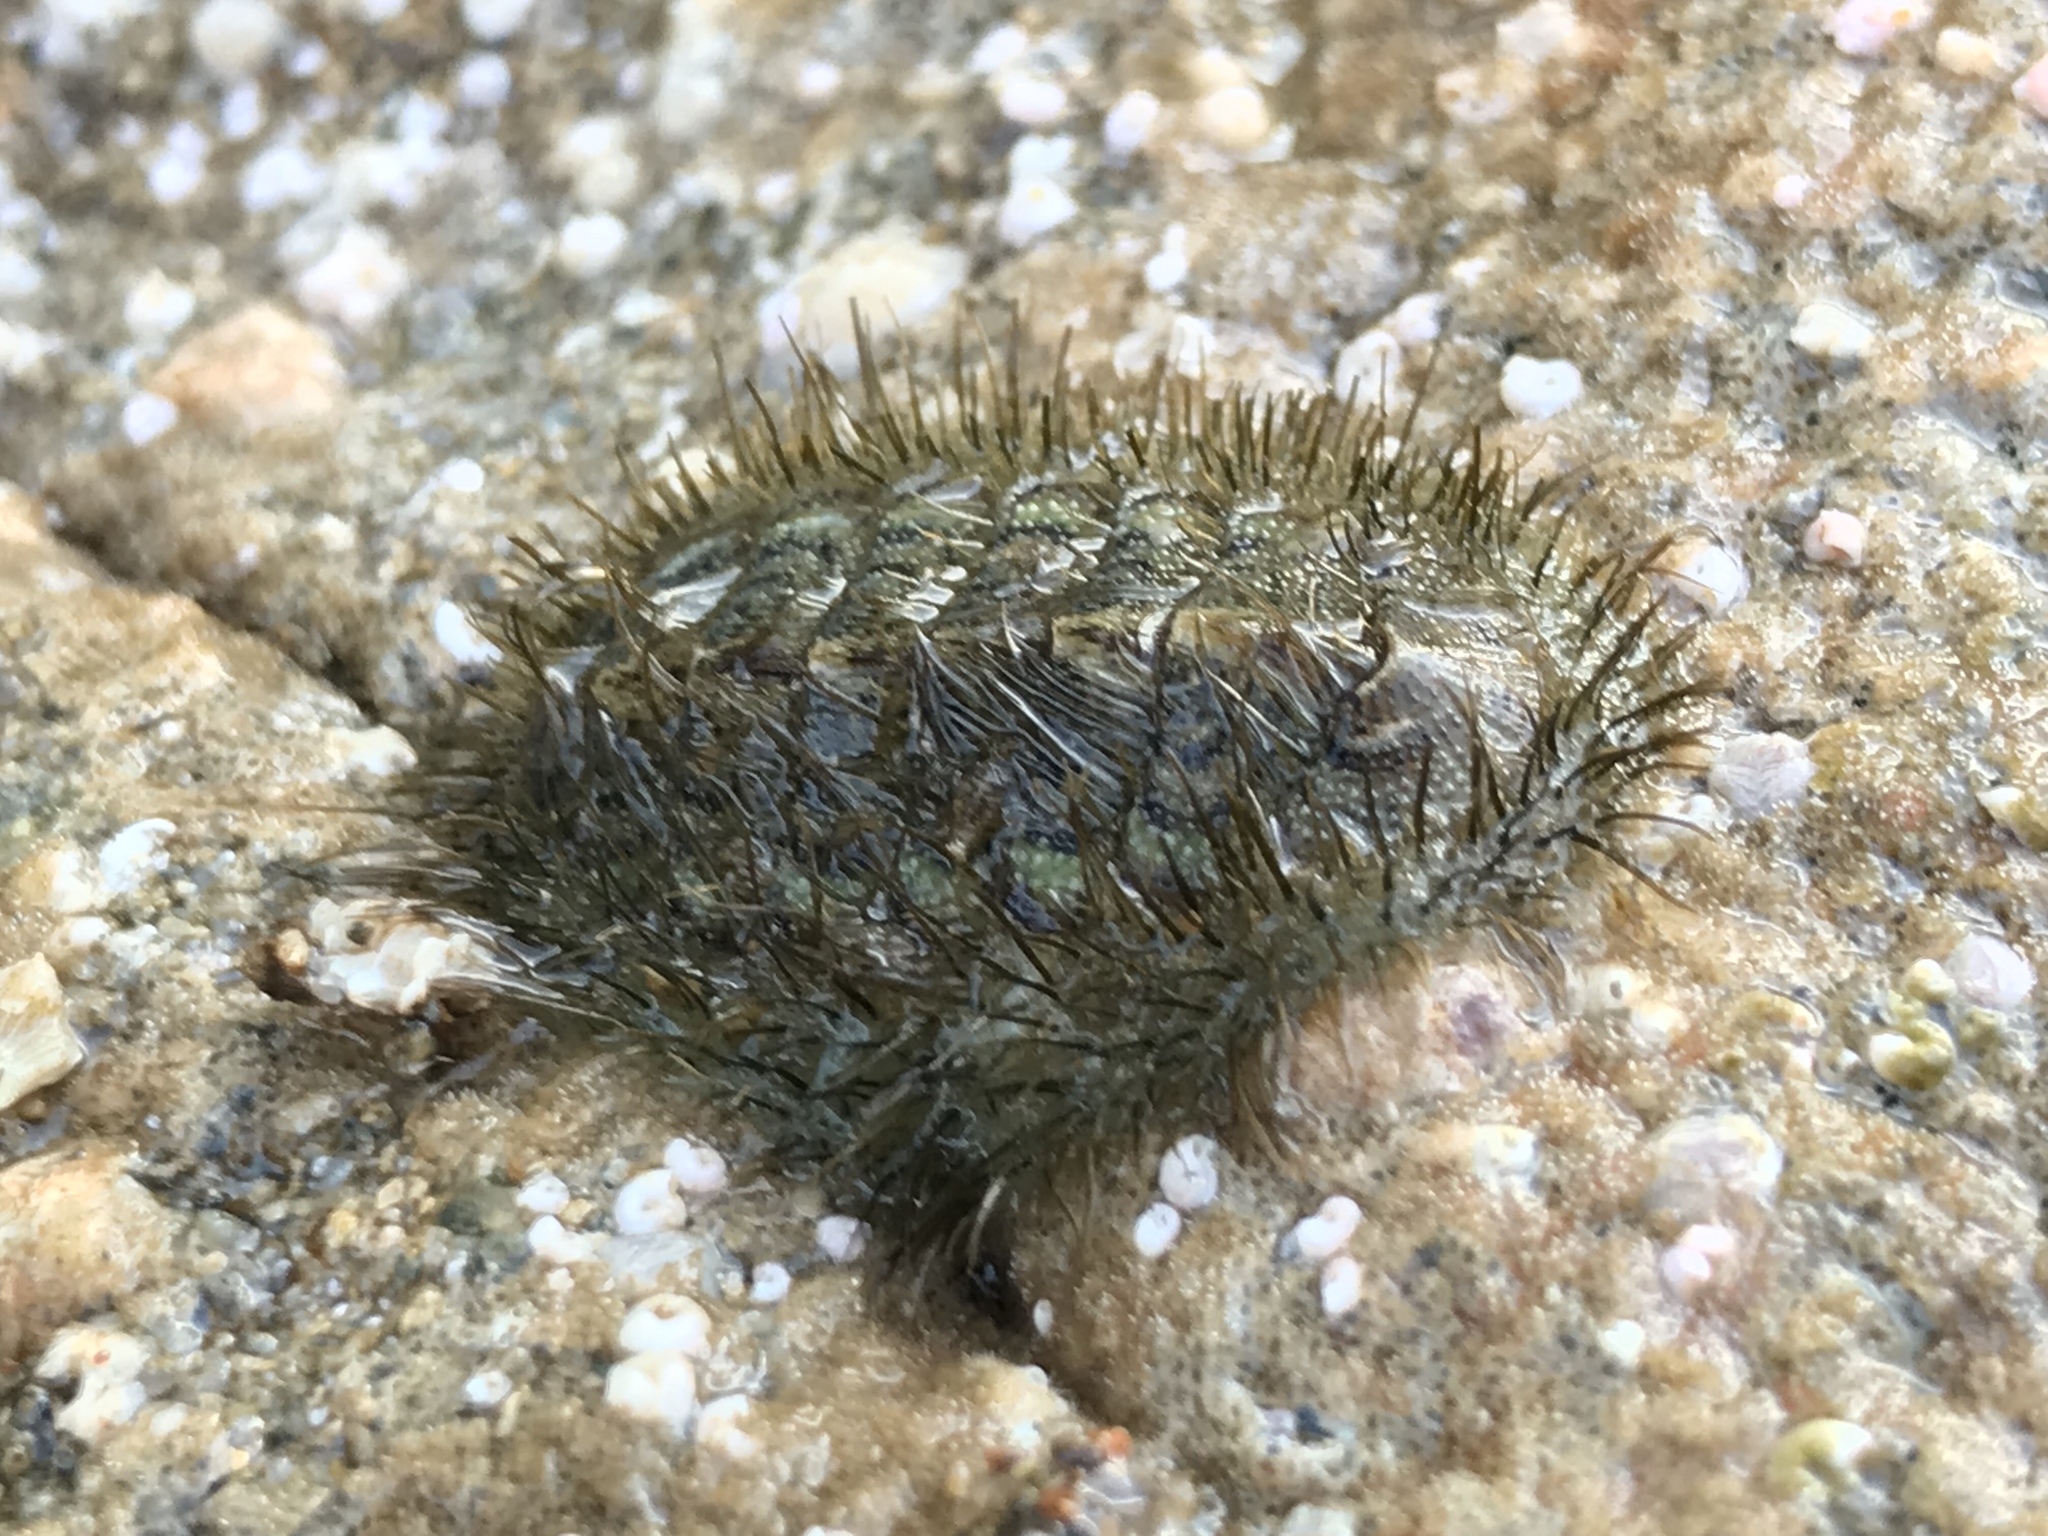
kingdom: Animalia
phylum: Mollusca
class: Polyplacophora
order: Chitonida
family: Chaetopleuridae
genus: Chaetopleura
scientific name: Chaetopleura peruviana
